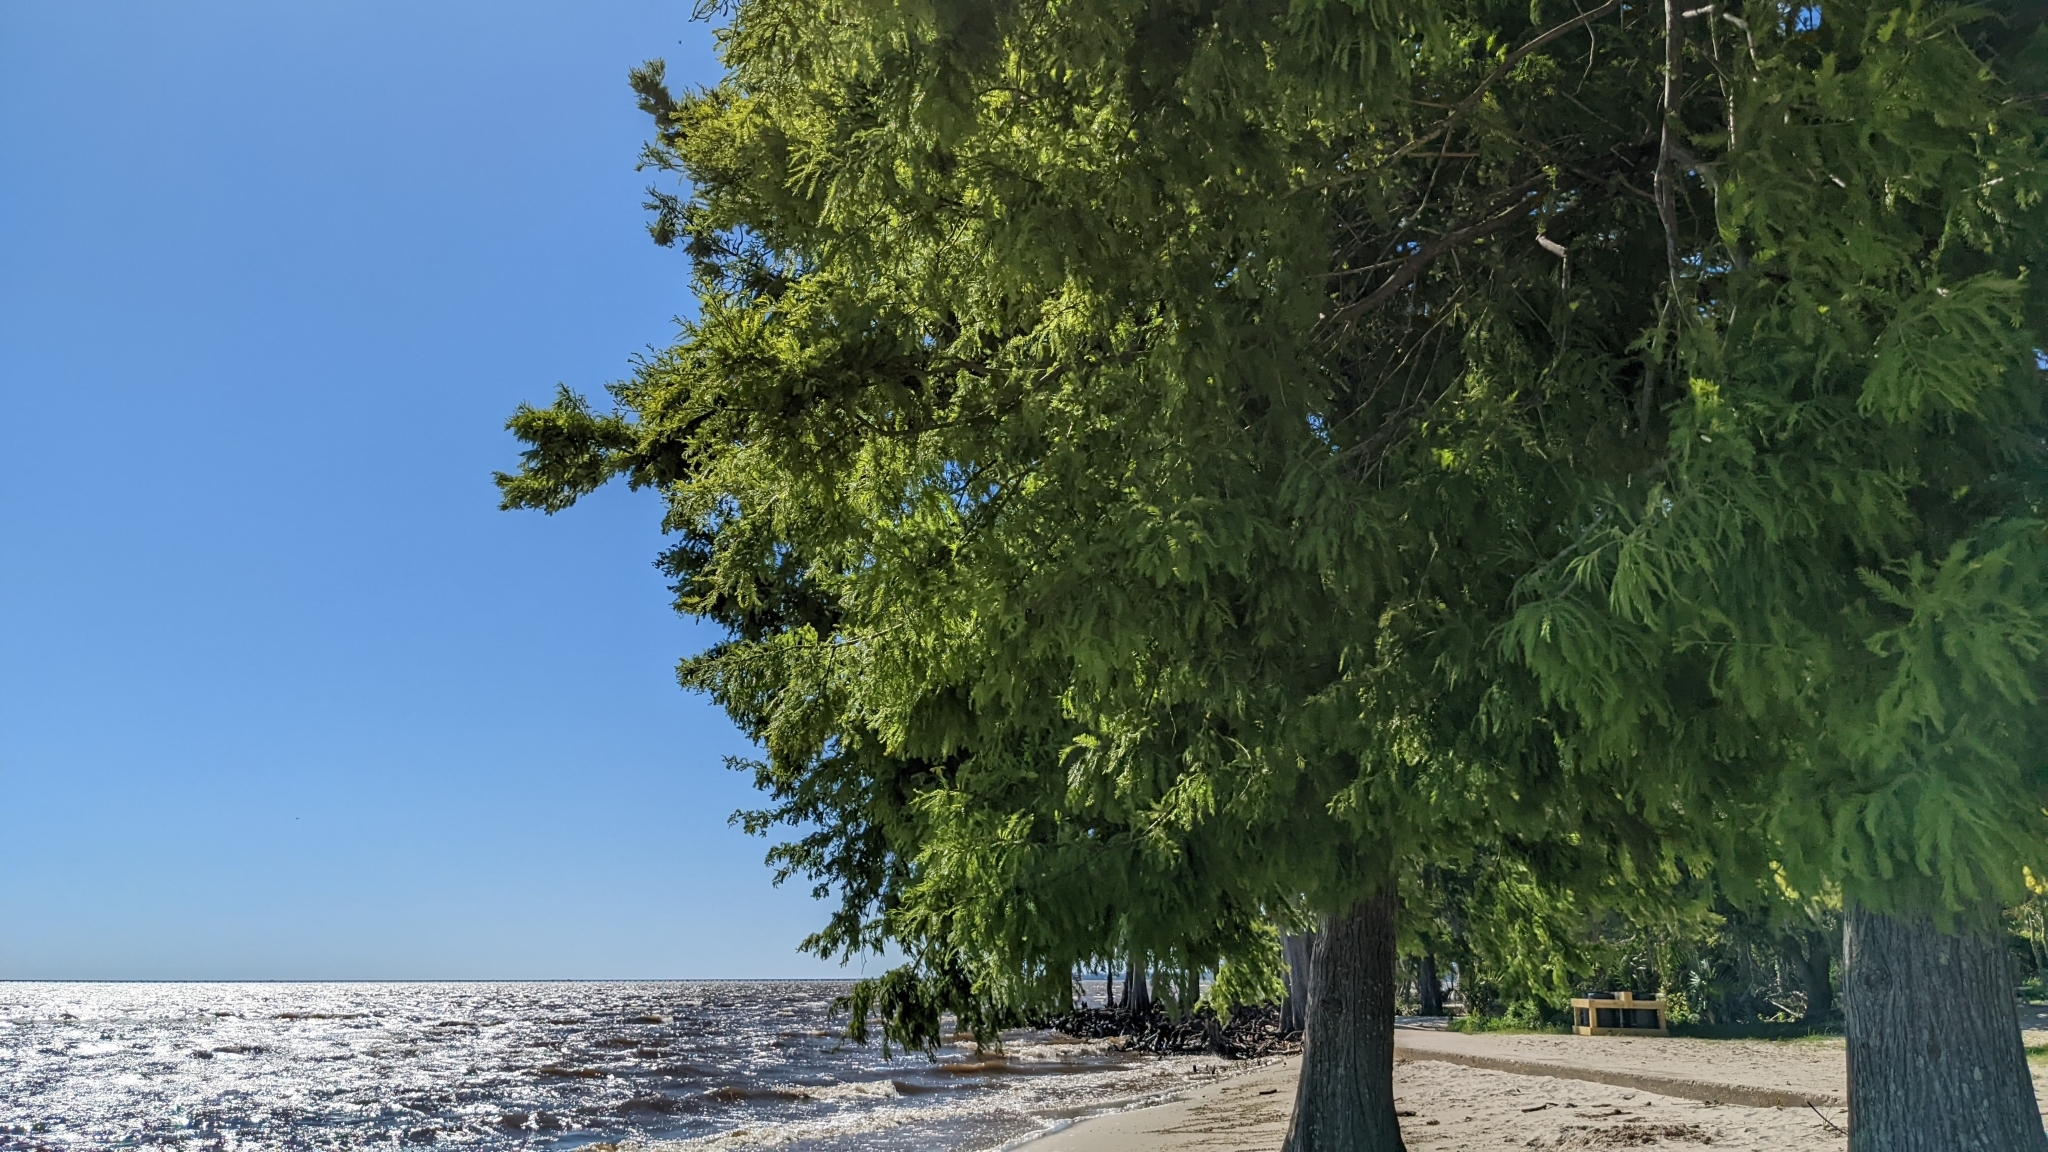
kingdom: Plantae
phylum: Tracheophyta
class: Pinopsida
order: Pinales
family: Cupressaceae
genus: Taxodium
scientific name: Taxodium distichum
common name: Bald cypress
